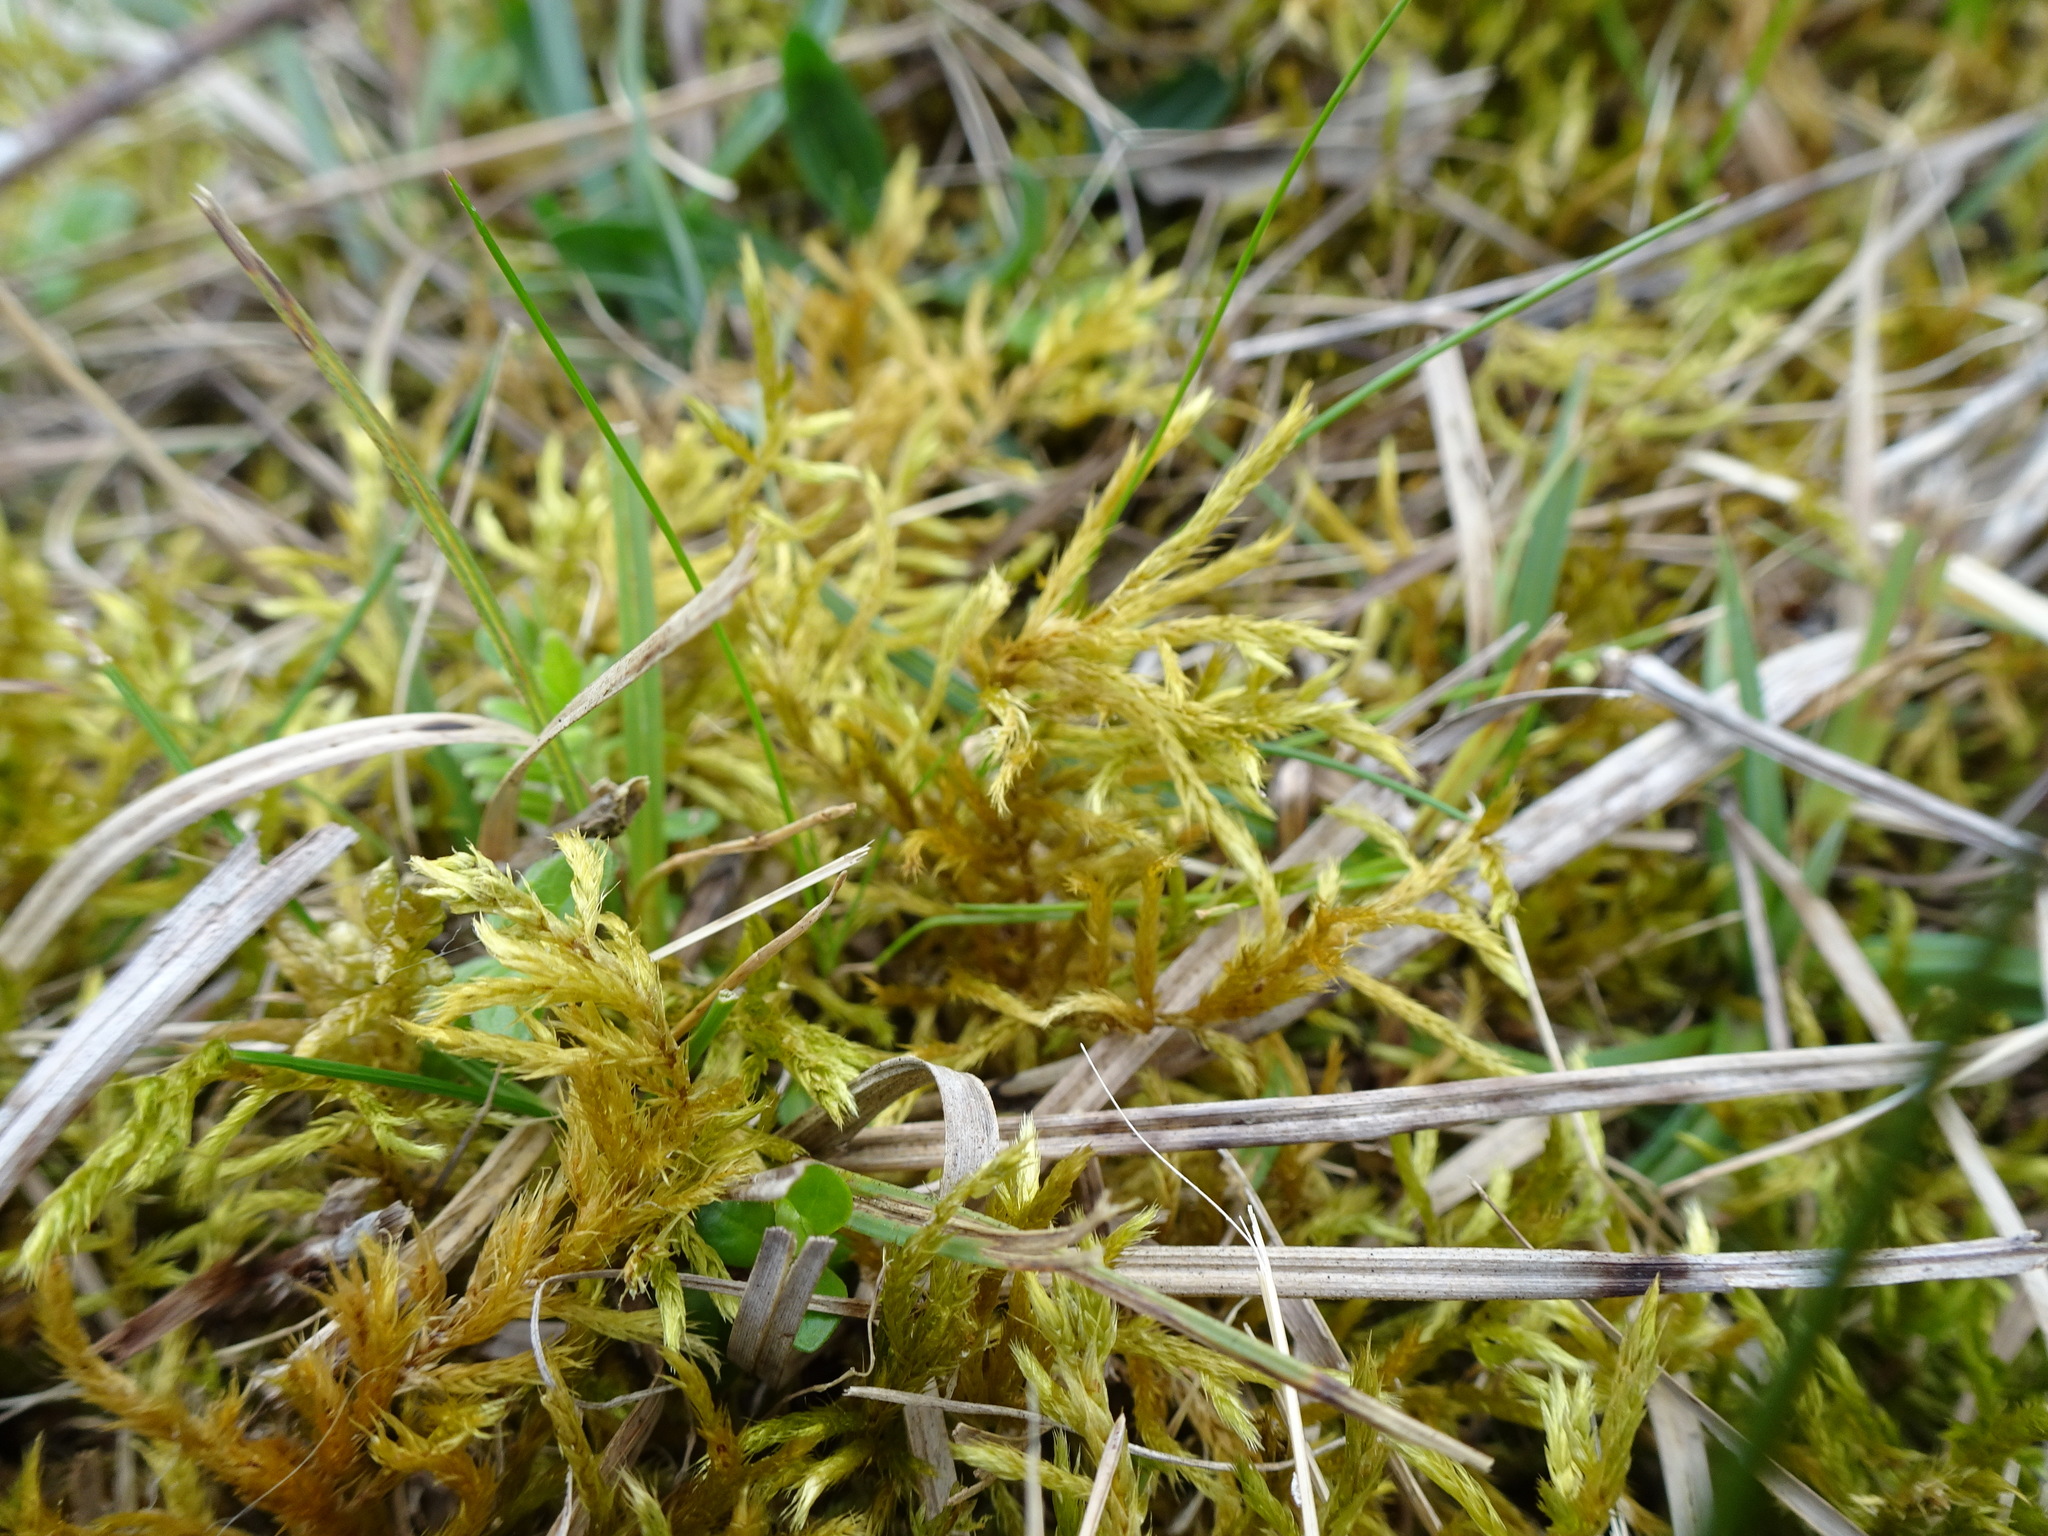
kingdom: Plantae
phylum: Bryophyta
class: Bryopsida
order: Hypnales
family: Brachytheciaceae
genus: Homalothecium
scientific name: Homalothecium lutescens
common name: Yellow feather-moss
